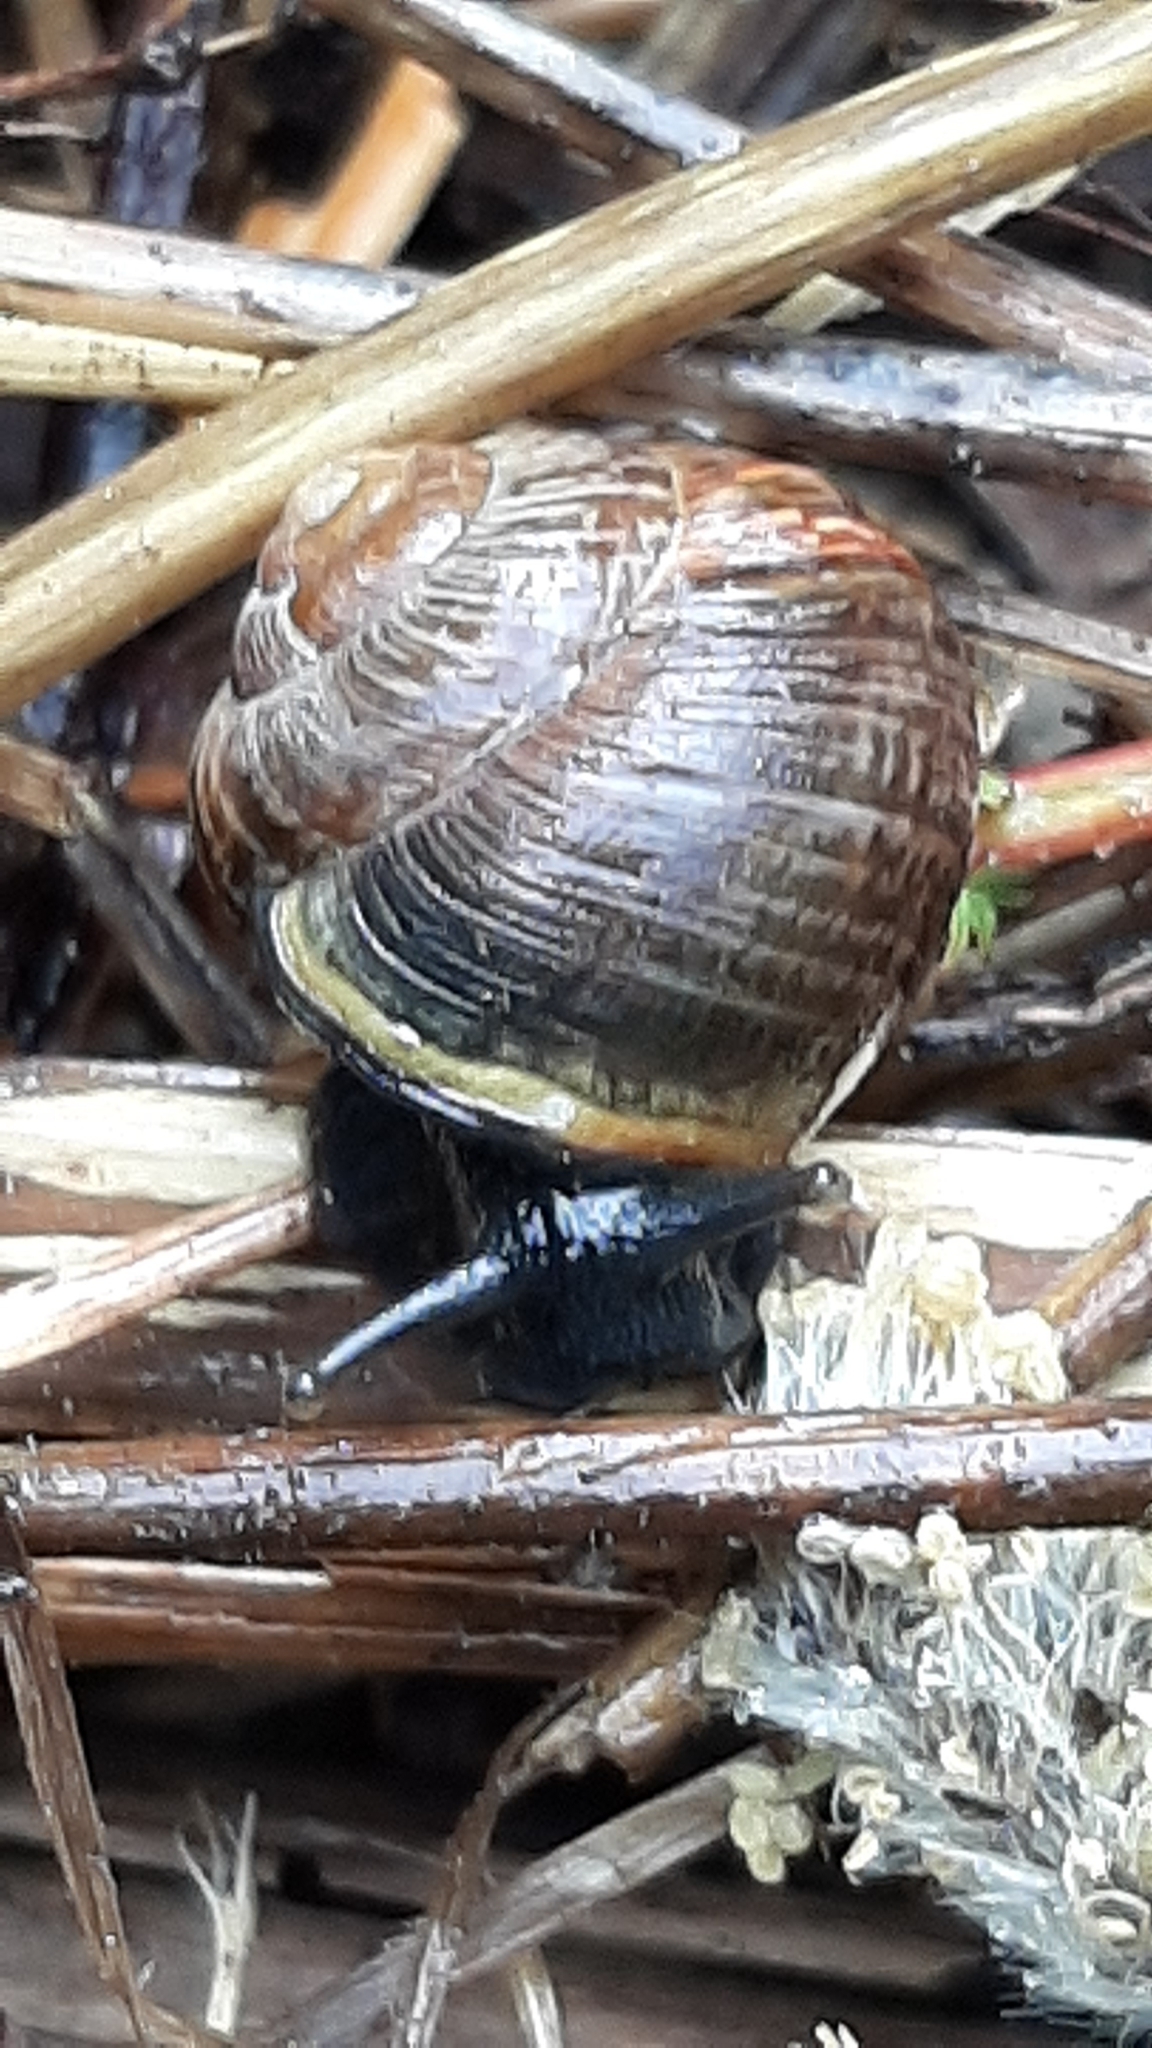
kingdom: Animalia
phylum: Mollusca
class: Gastropoda
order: Stylommatophora
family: Helicidae
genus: Arianta
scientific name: Arianta arbustorum
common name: Copse snail
